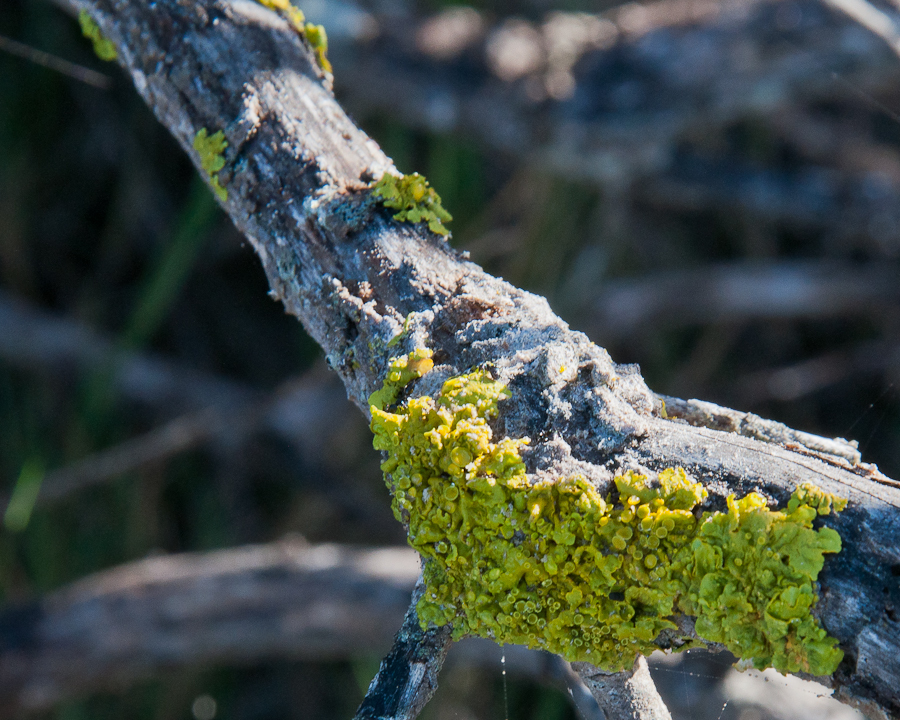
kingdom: Fungi
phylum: Ascomycota
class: Lecanoromycetes
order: Teloschistales
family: Teloschistaceae
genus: Xanthoria
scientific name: Xanthoria parietina
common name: Common orange lichen
